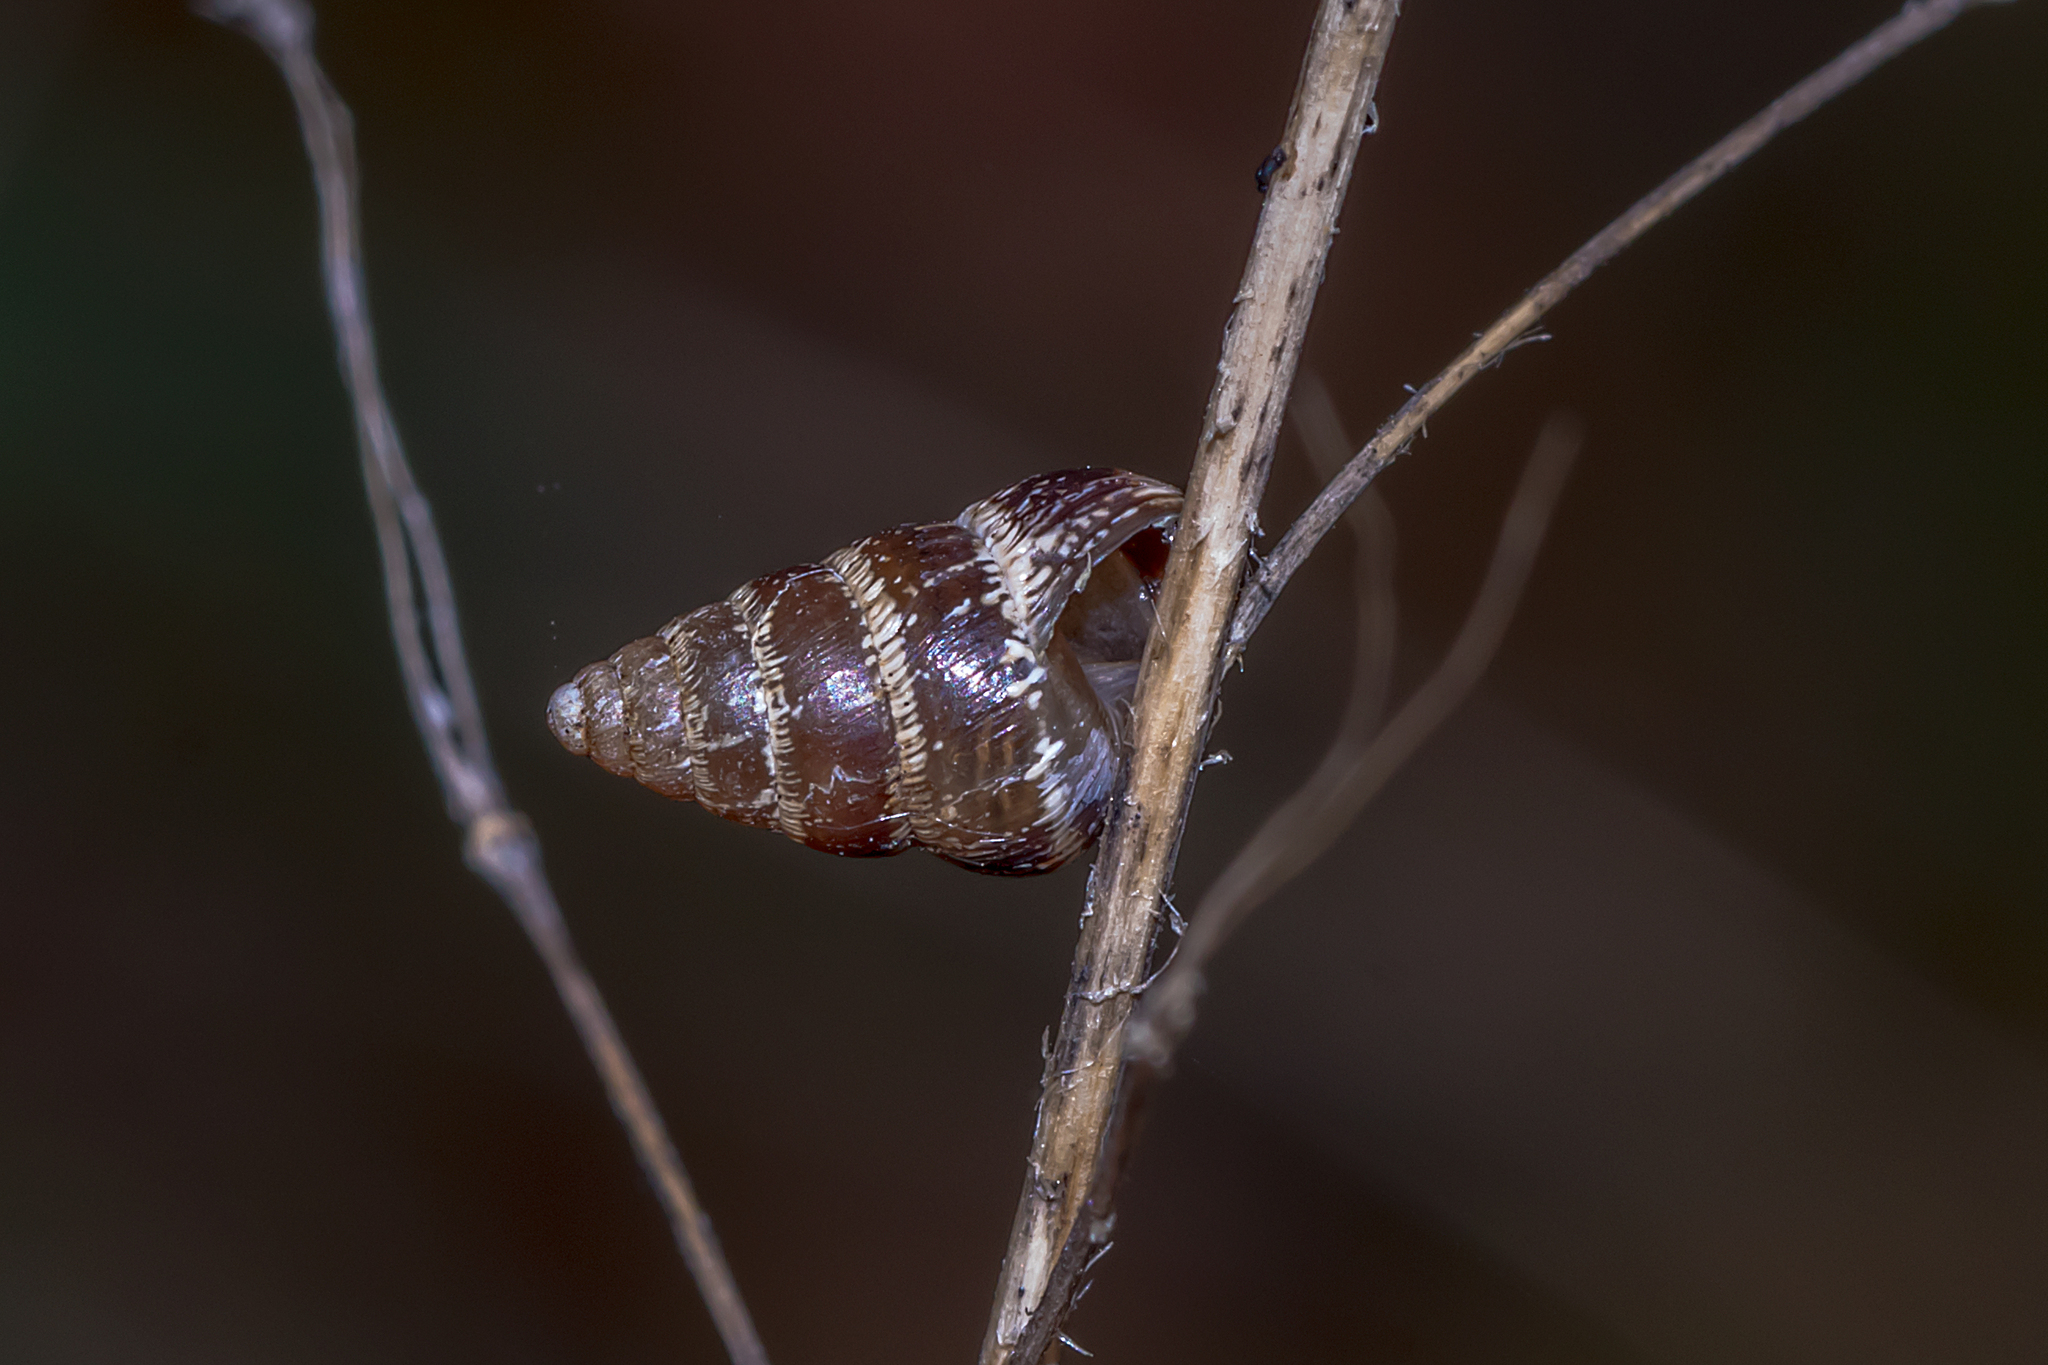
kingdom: Animalia
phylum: Mollusca
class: Gastropoda
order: Stylommatophora
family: Geomitridae
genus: Cochlicella
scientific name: Cochlicella barbara
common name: Potbellied helicellid
